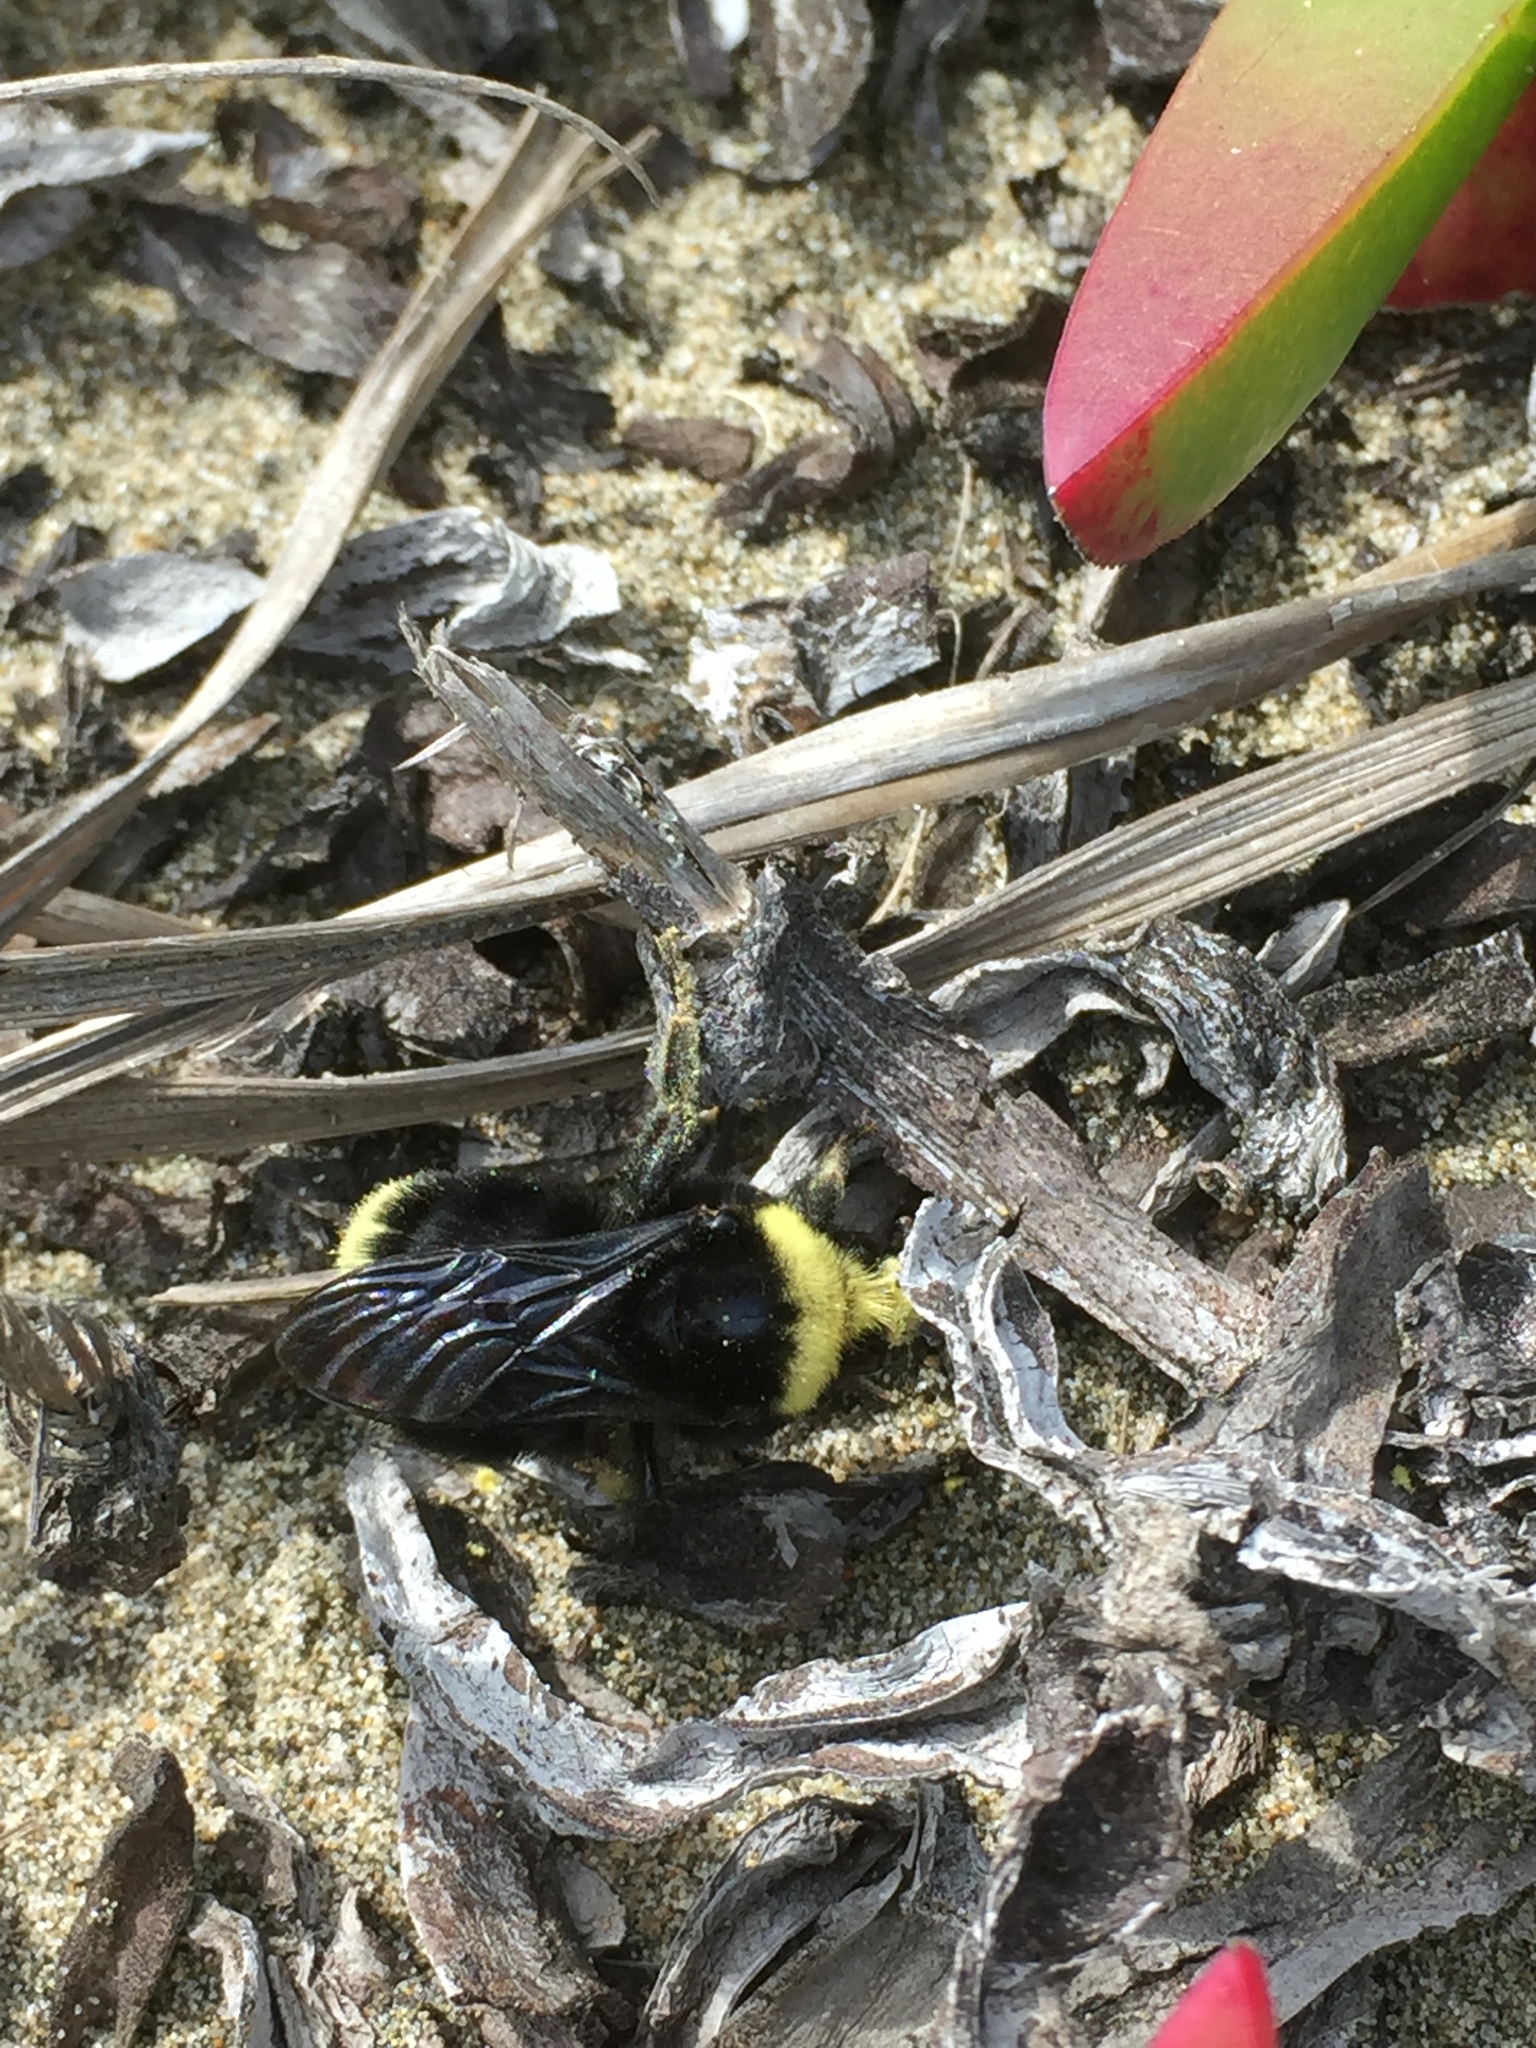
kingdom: Animalia
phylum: Arthropoda
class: Insecta
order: Hymenoptera
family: Apidae
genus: Bombus
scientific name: Bombus vosnesenskii
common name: Vosnesensky bumble bee
